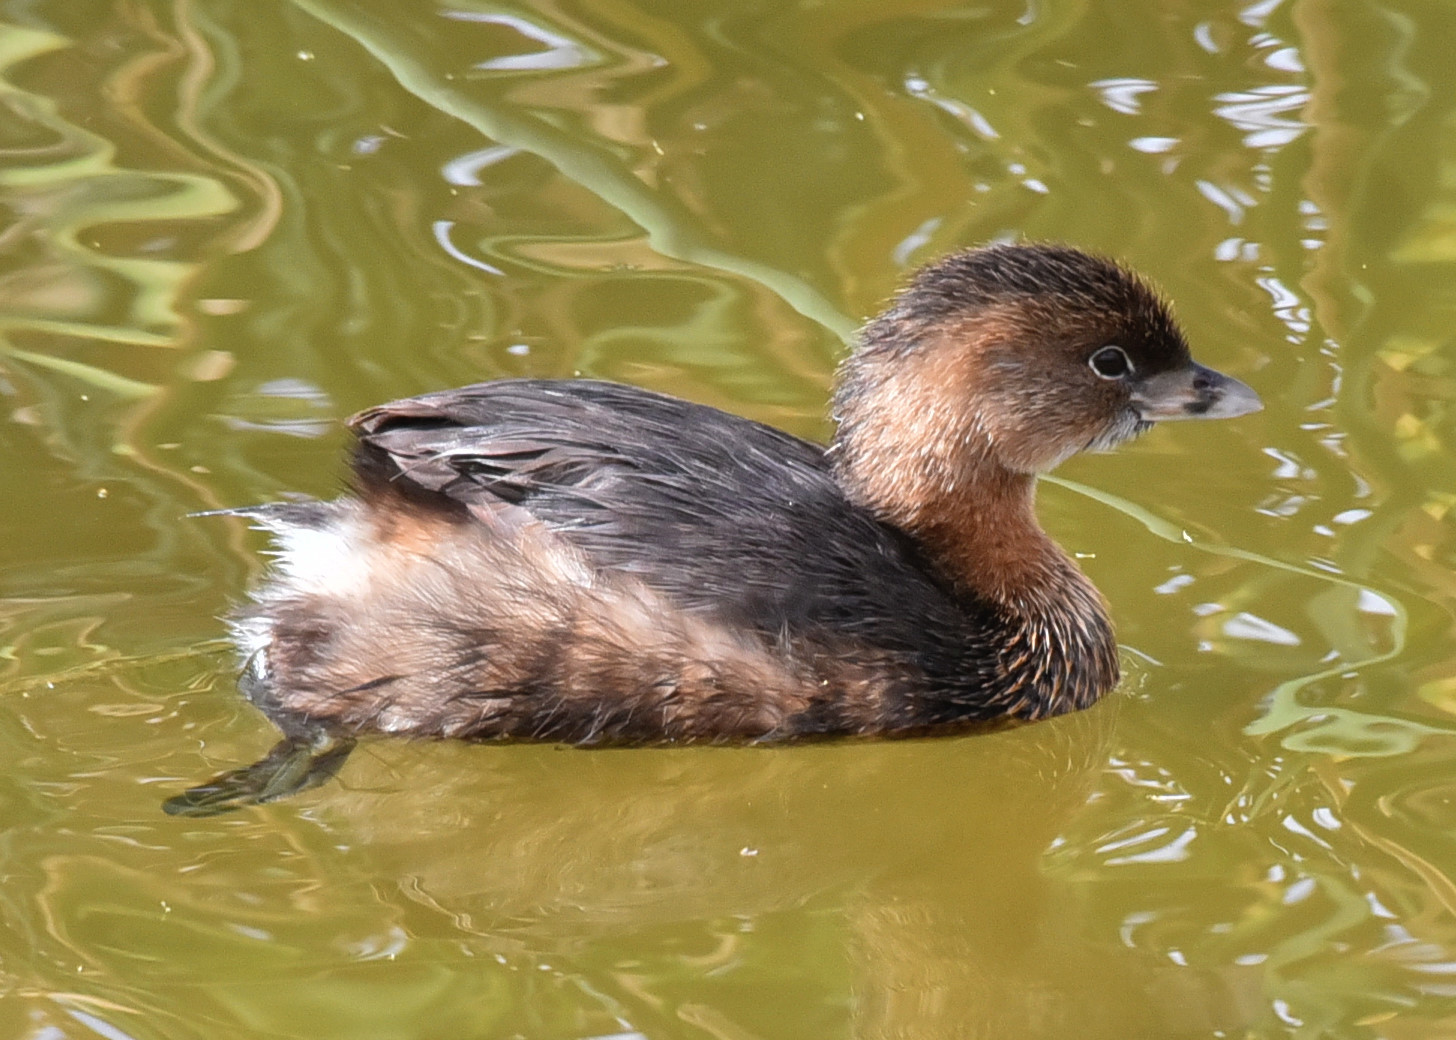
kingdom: Animalia
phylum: Chordata
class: Aves
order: Podicipediformes
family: Podicipedidae
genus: Podilymbus
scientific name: Podilymbus podiceps
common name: Pied-billed grebe
